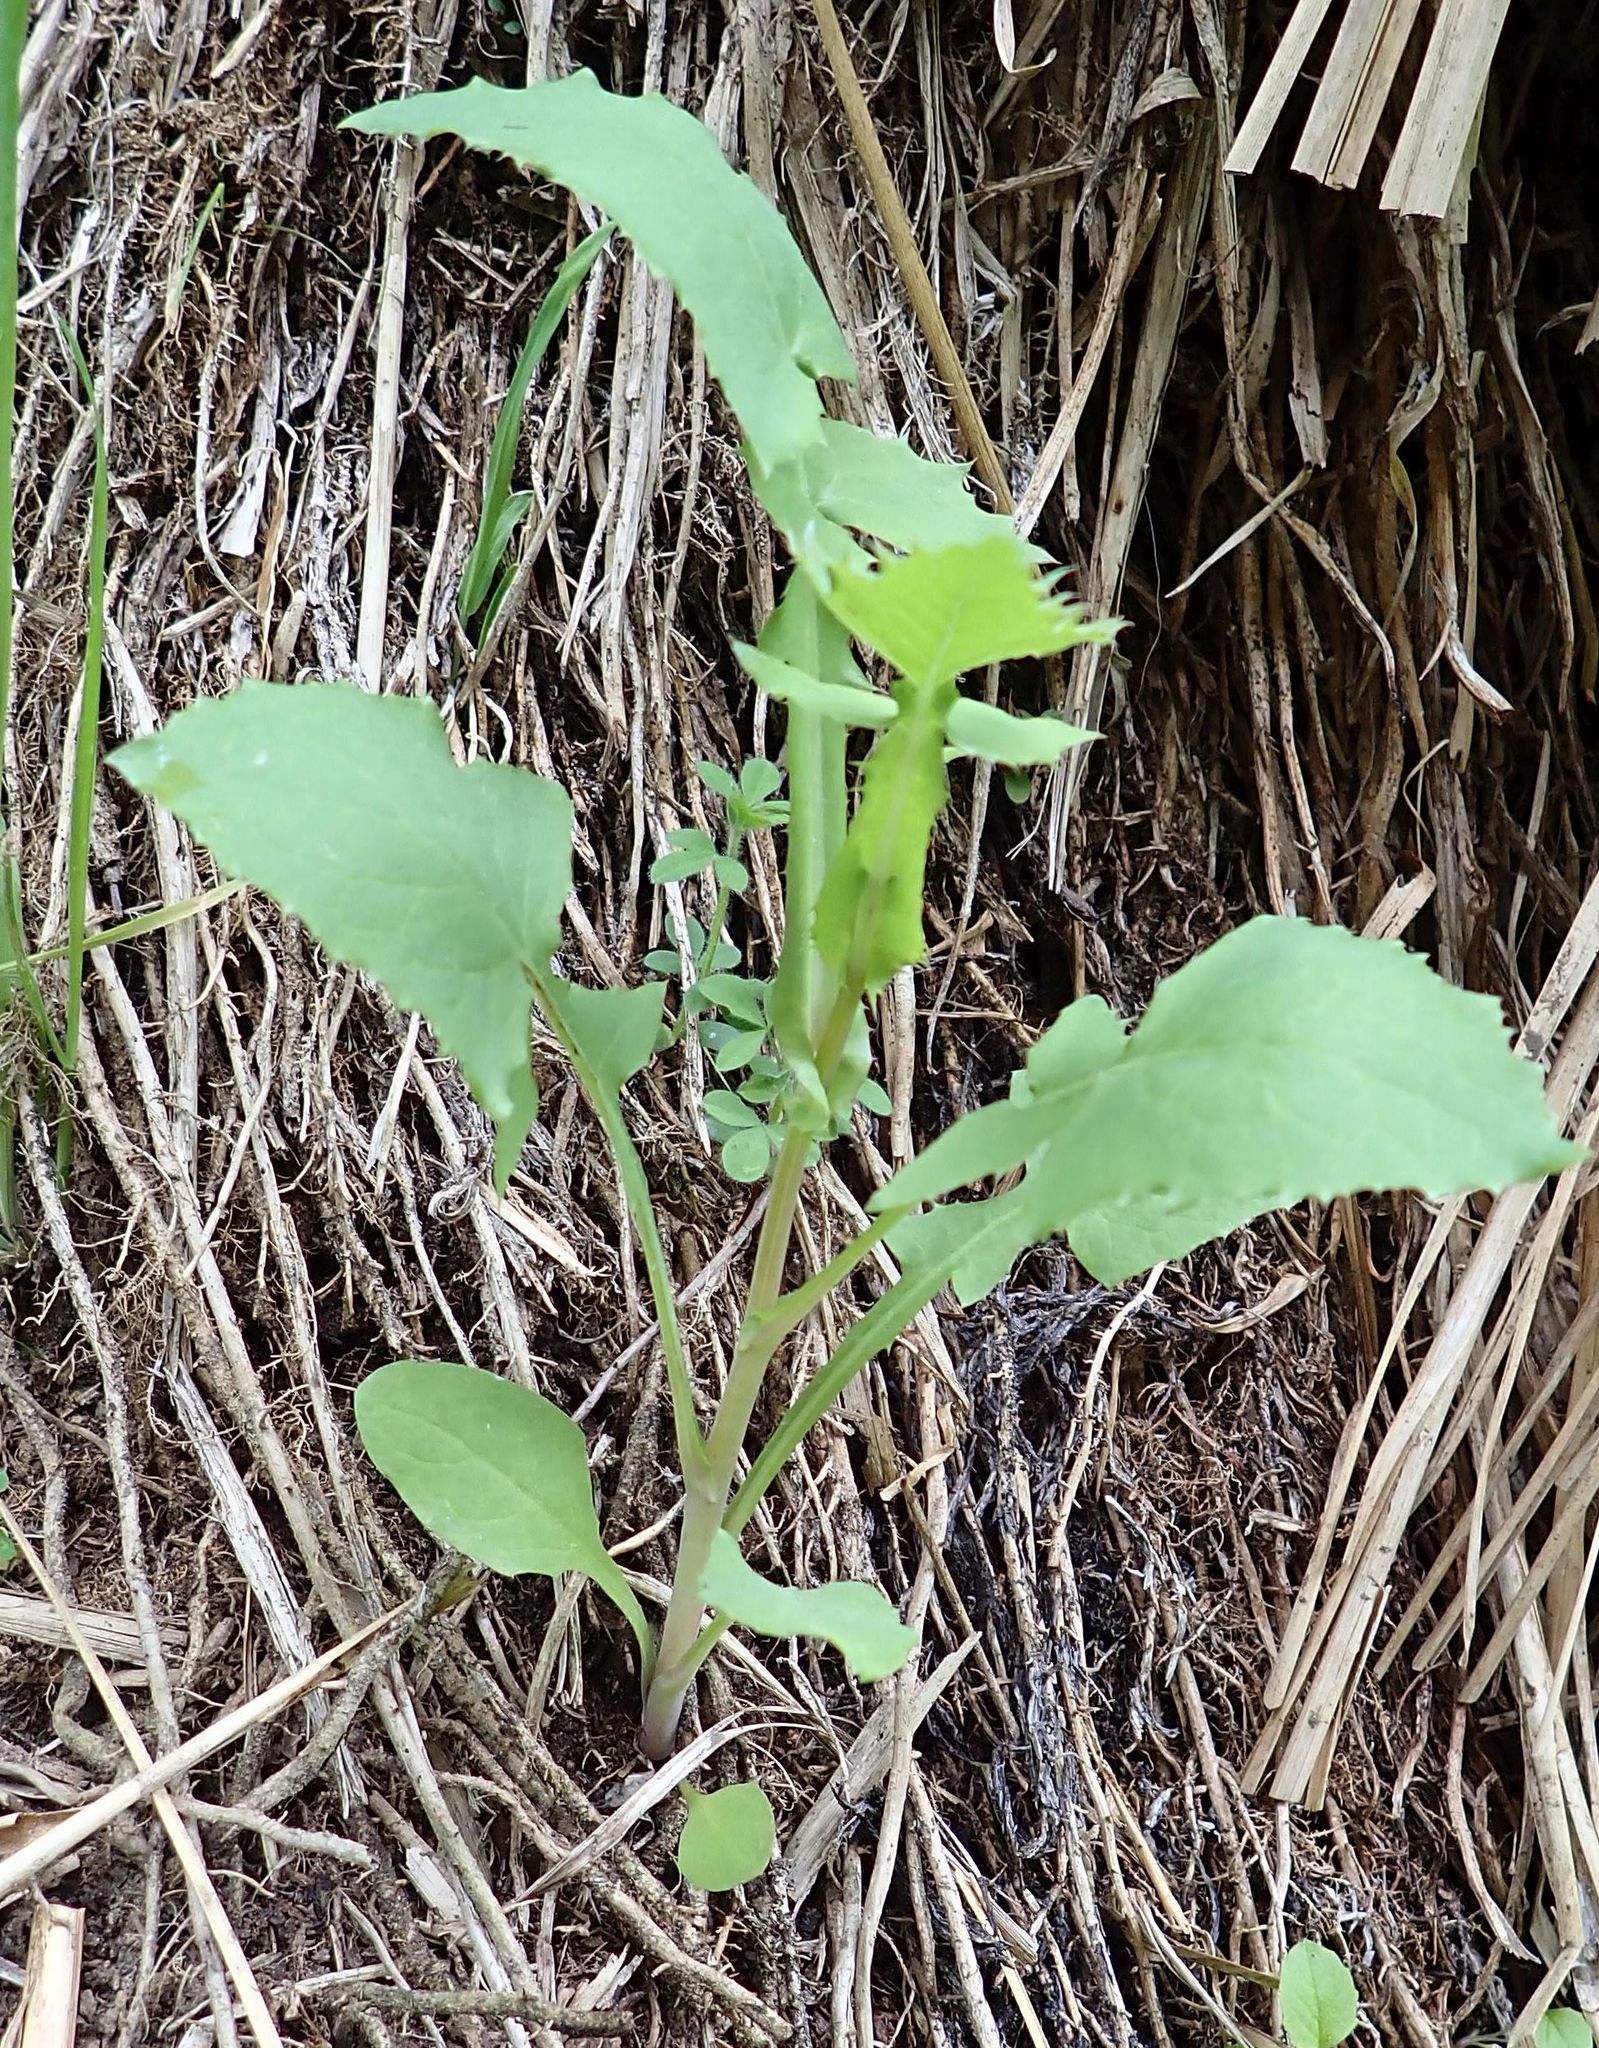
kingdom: Plantae
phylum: Tracheophyta
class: Magnoliopsida
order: Asterales
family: Asteraceae
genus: Sonchus
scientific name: Sonchus oleraceus
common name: Common sowthistle
